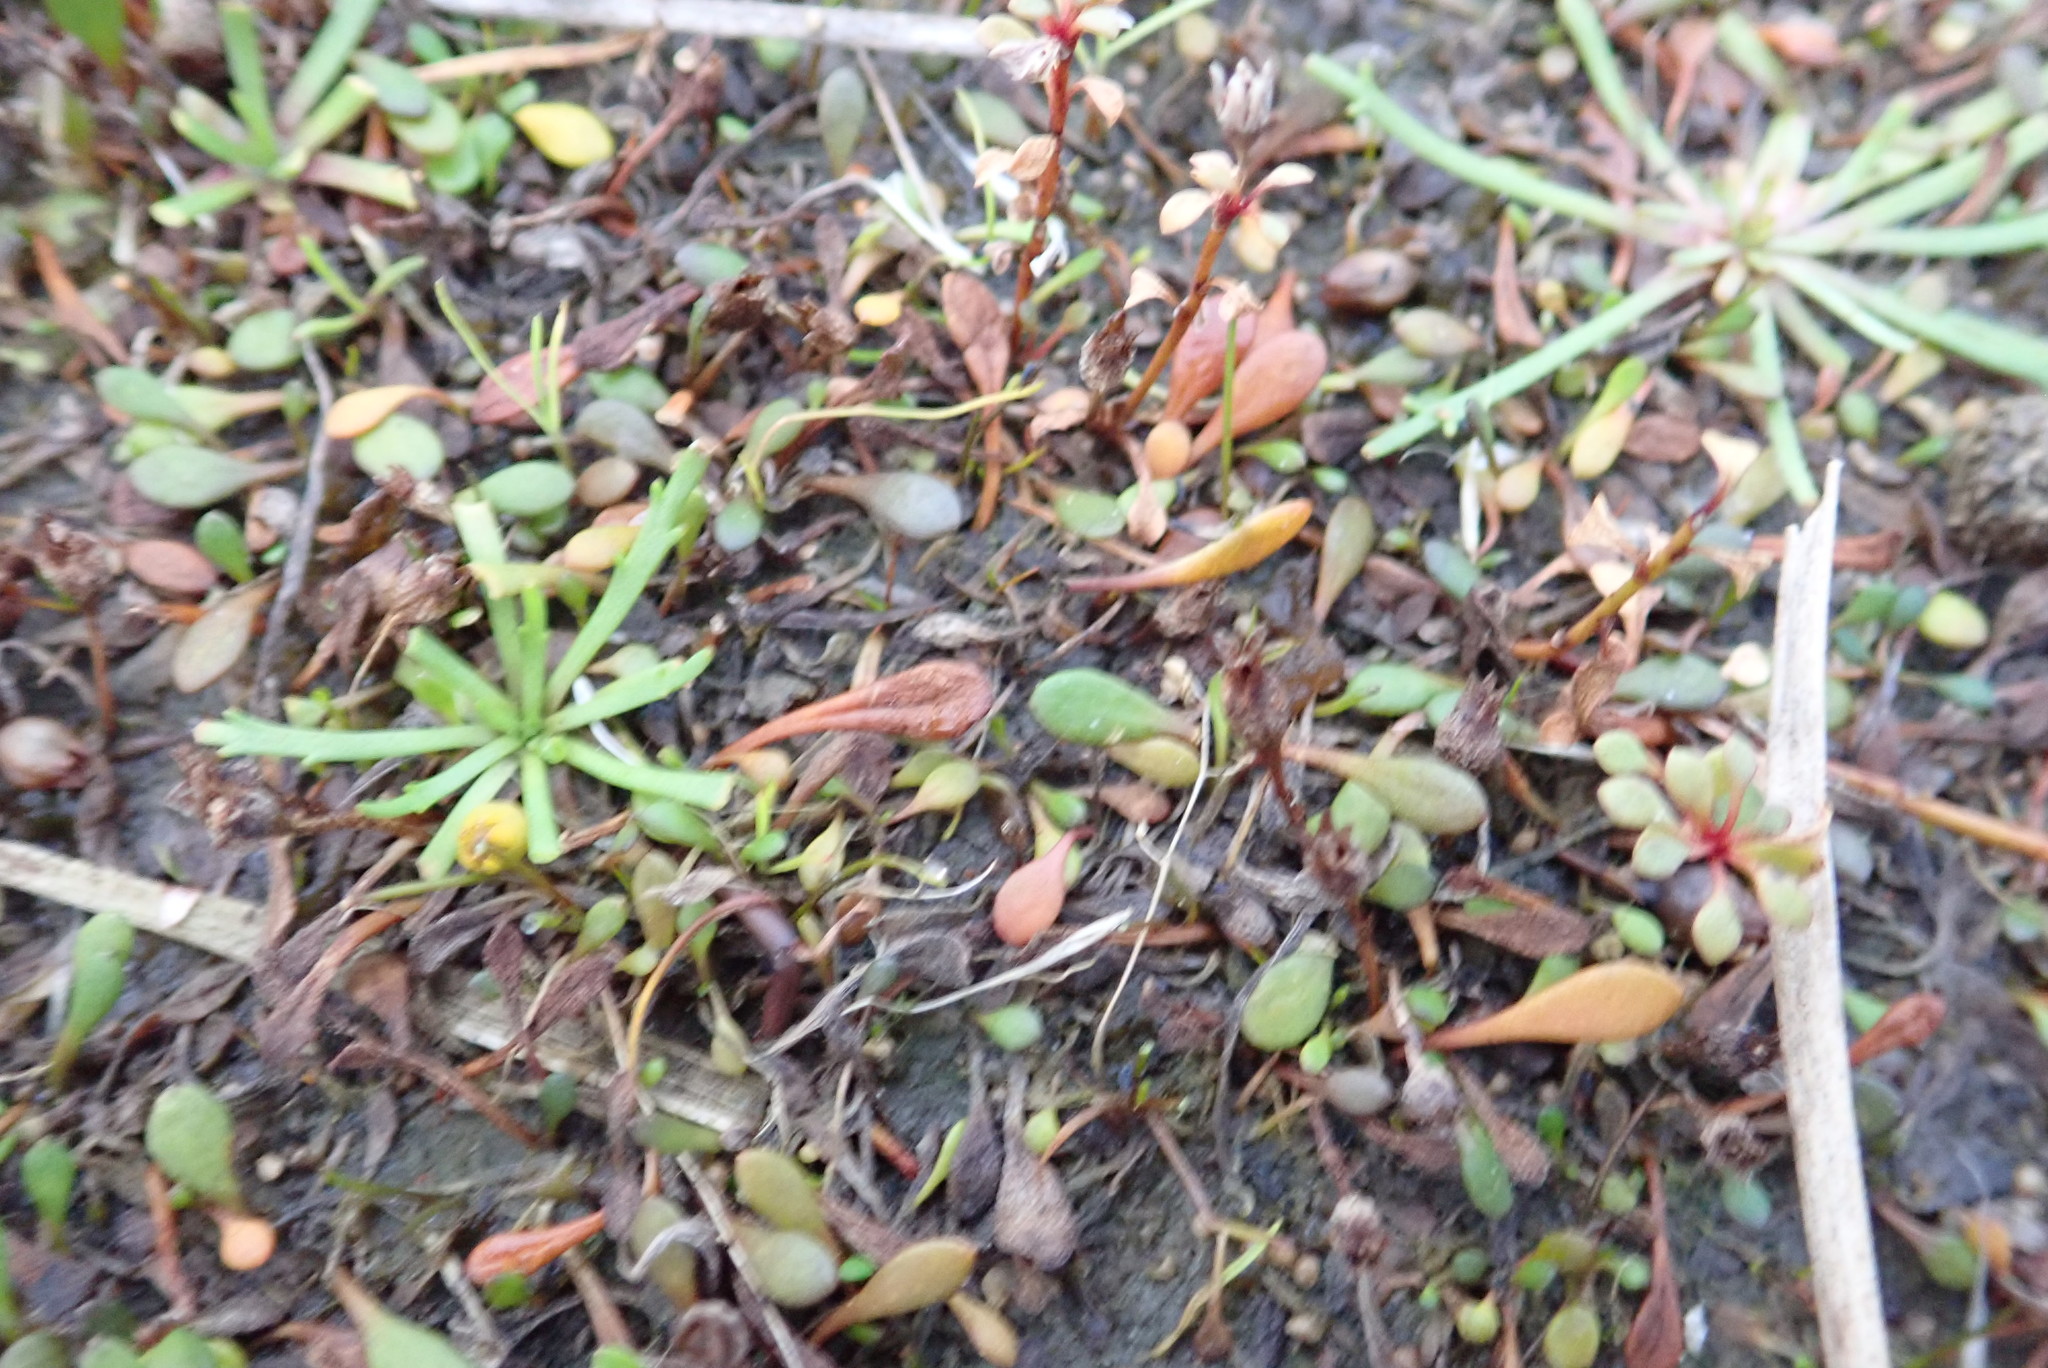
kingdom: Plantae
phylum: Tracheophyta
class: Magnoliopsida
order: Asterales
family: Goodeniaceae
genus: Goodenia
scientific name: Goodenia radicans
